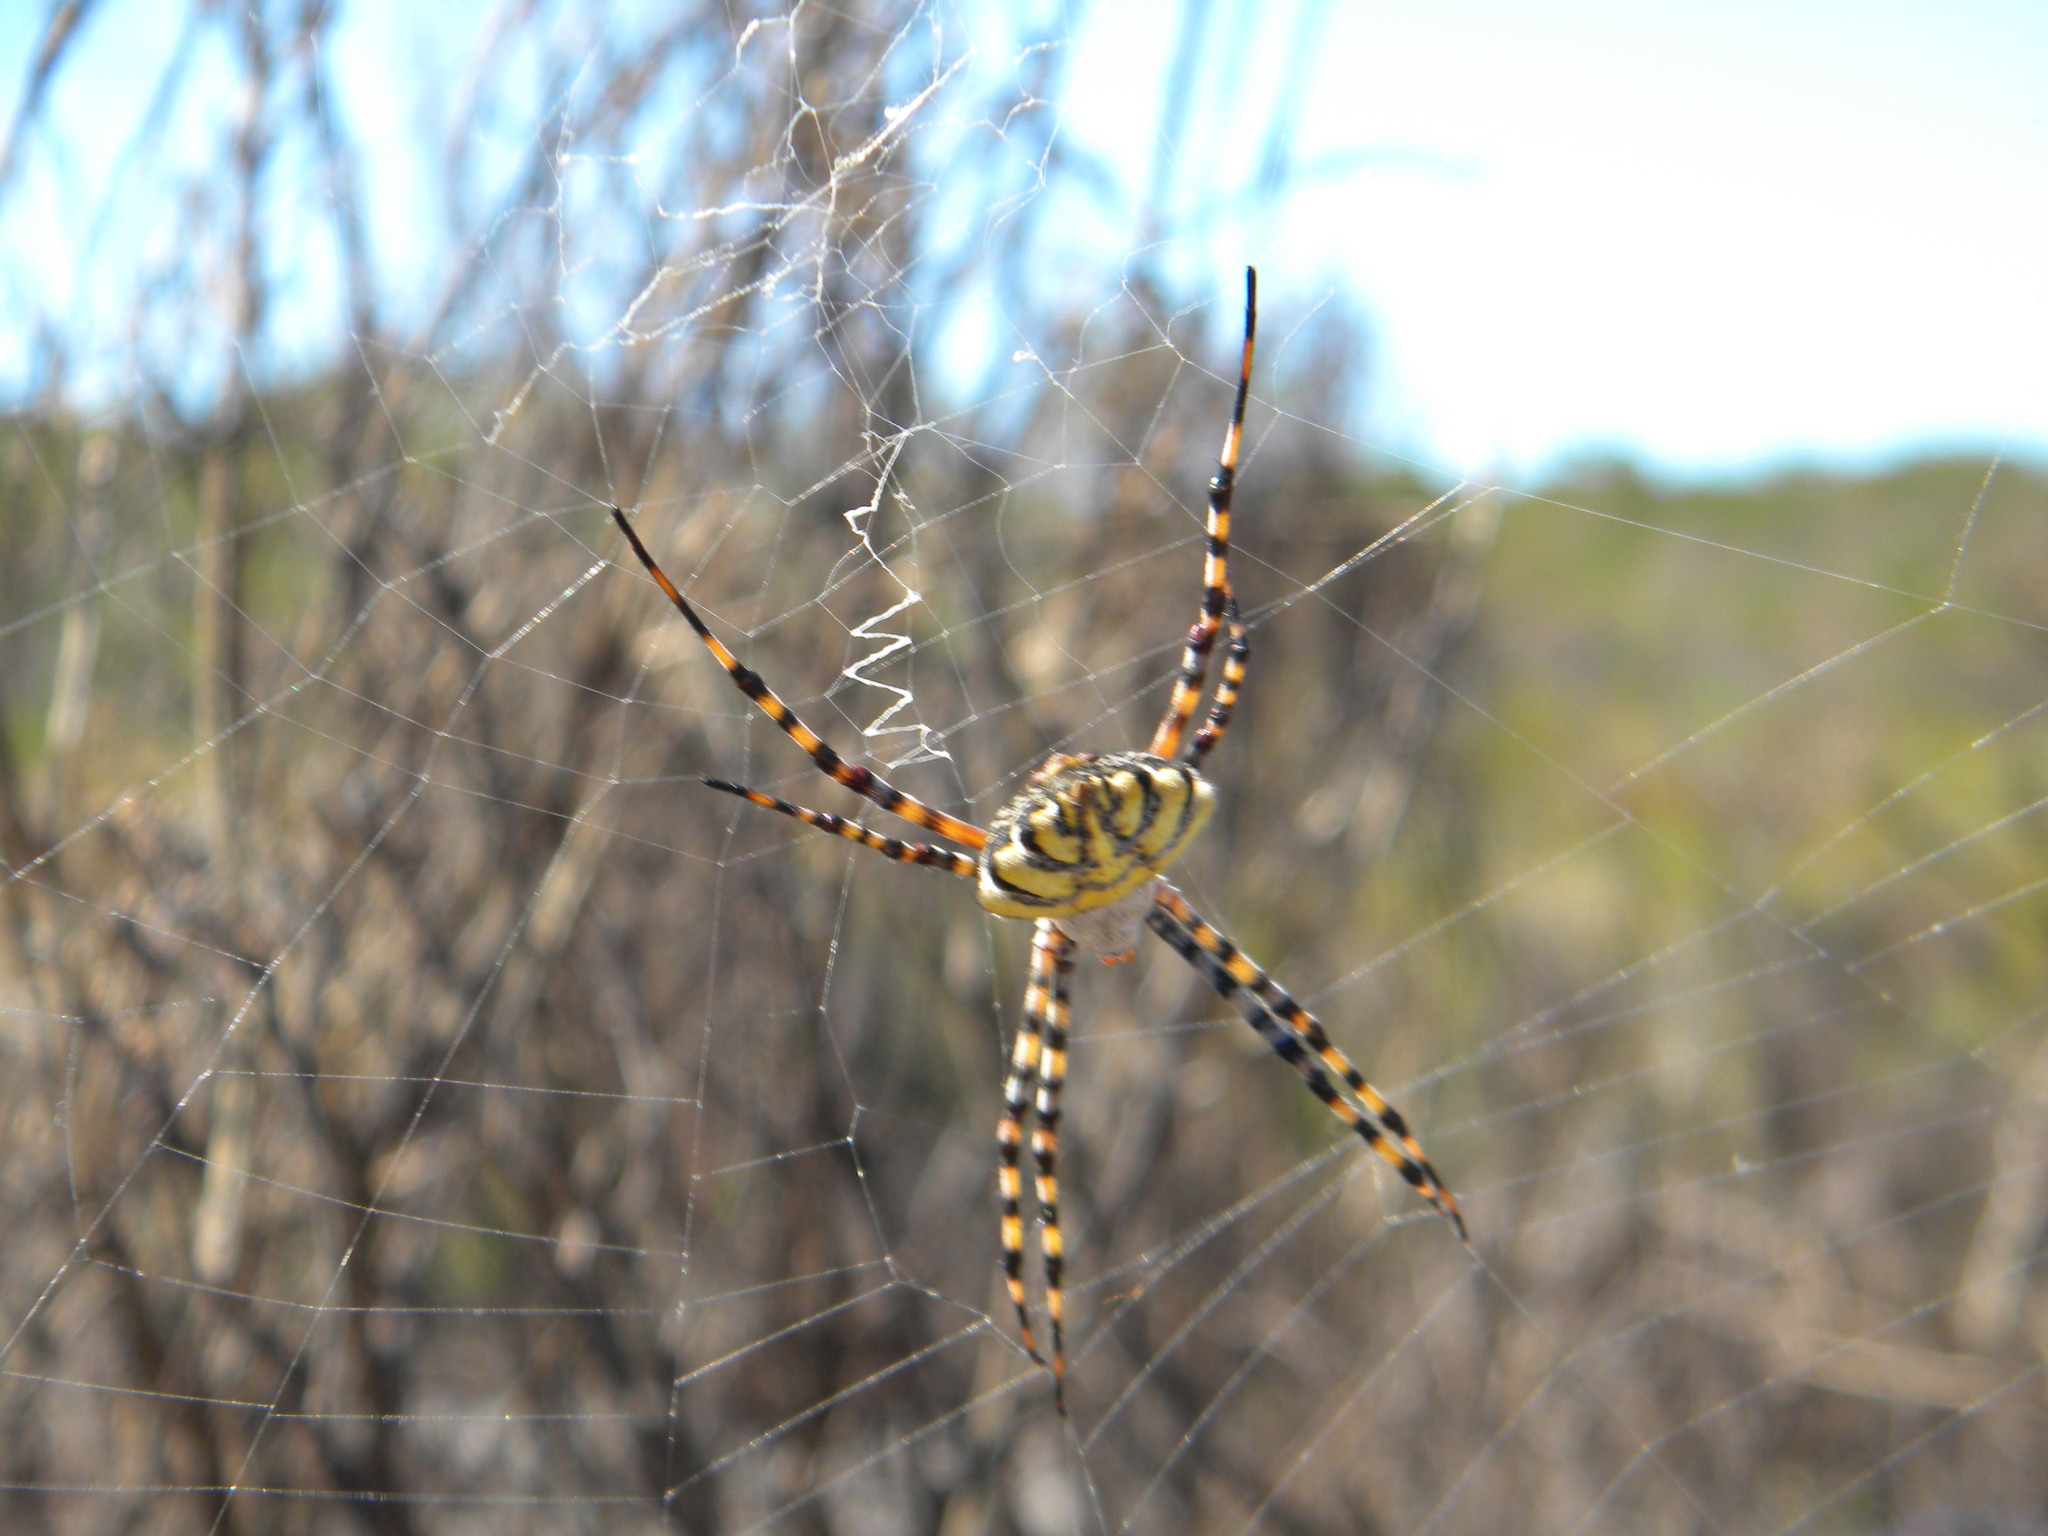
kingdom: Animalia
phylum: Arthropoda
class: Arachnida
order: Araneae
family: Araneidae
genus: Argiope
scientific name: Argiope australis
